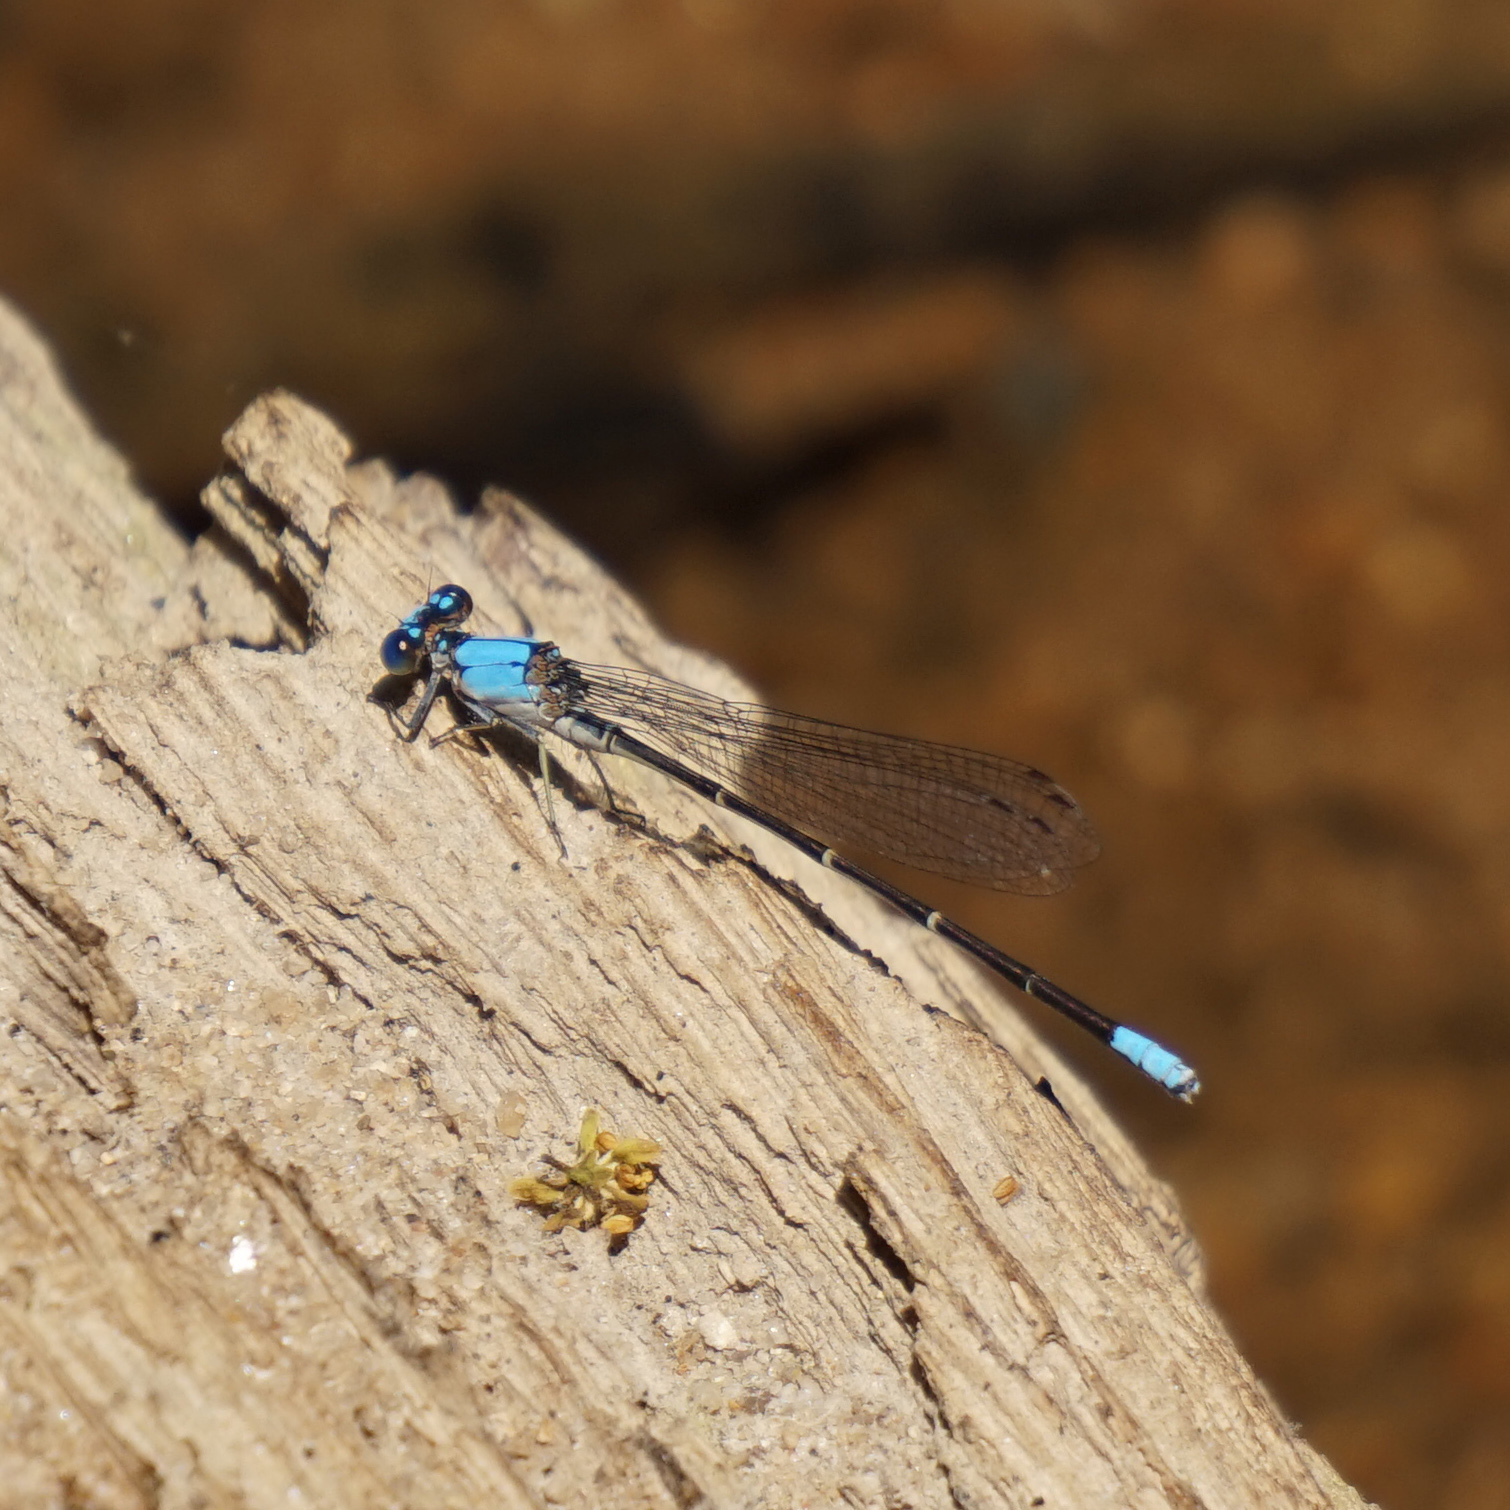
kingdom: Animalia
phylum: Arthropoda
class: Insecta
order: Odonata
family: Coenagrionidae
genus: Argia
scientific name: Argia apicalis
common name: Blue-fronted dancer
